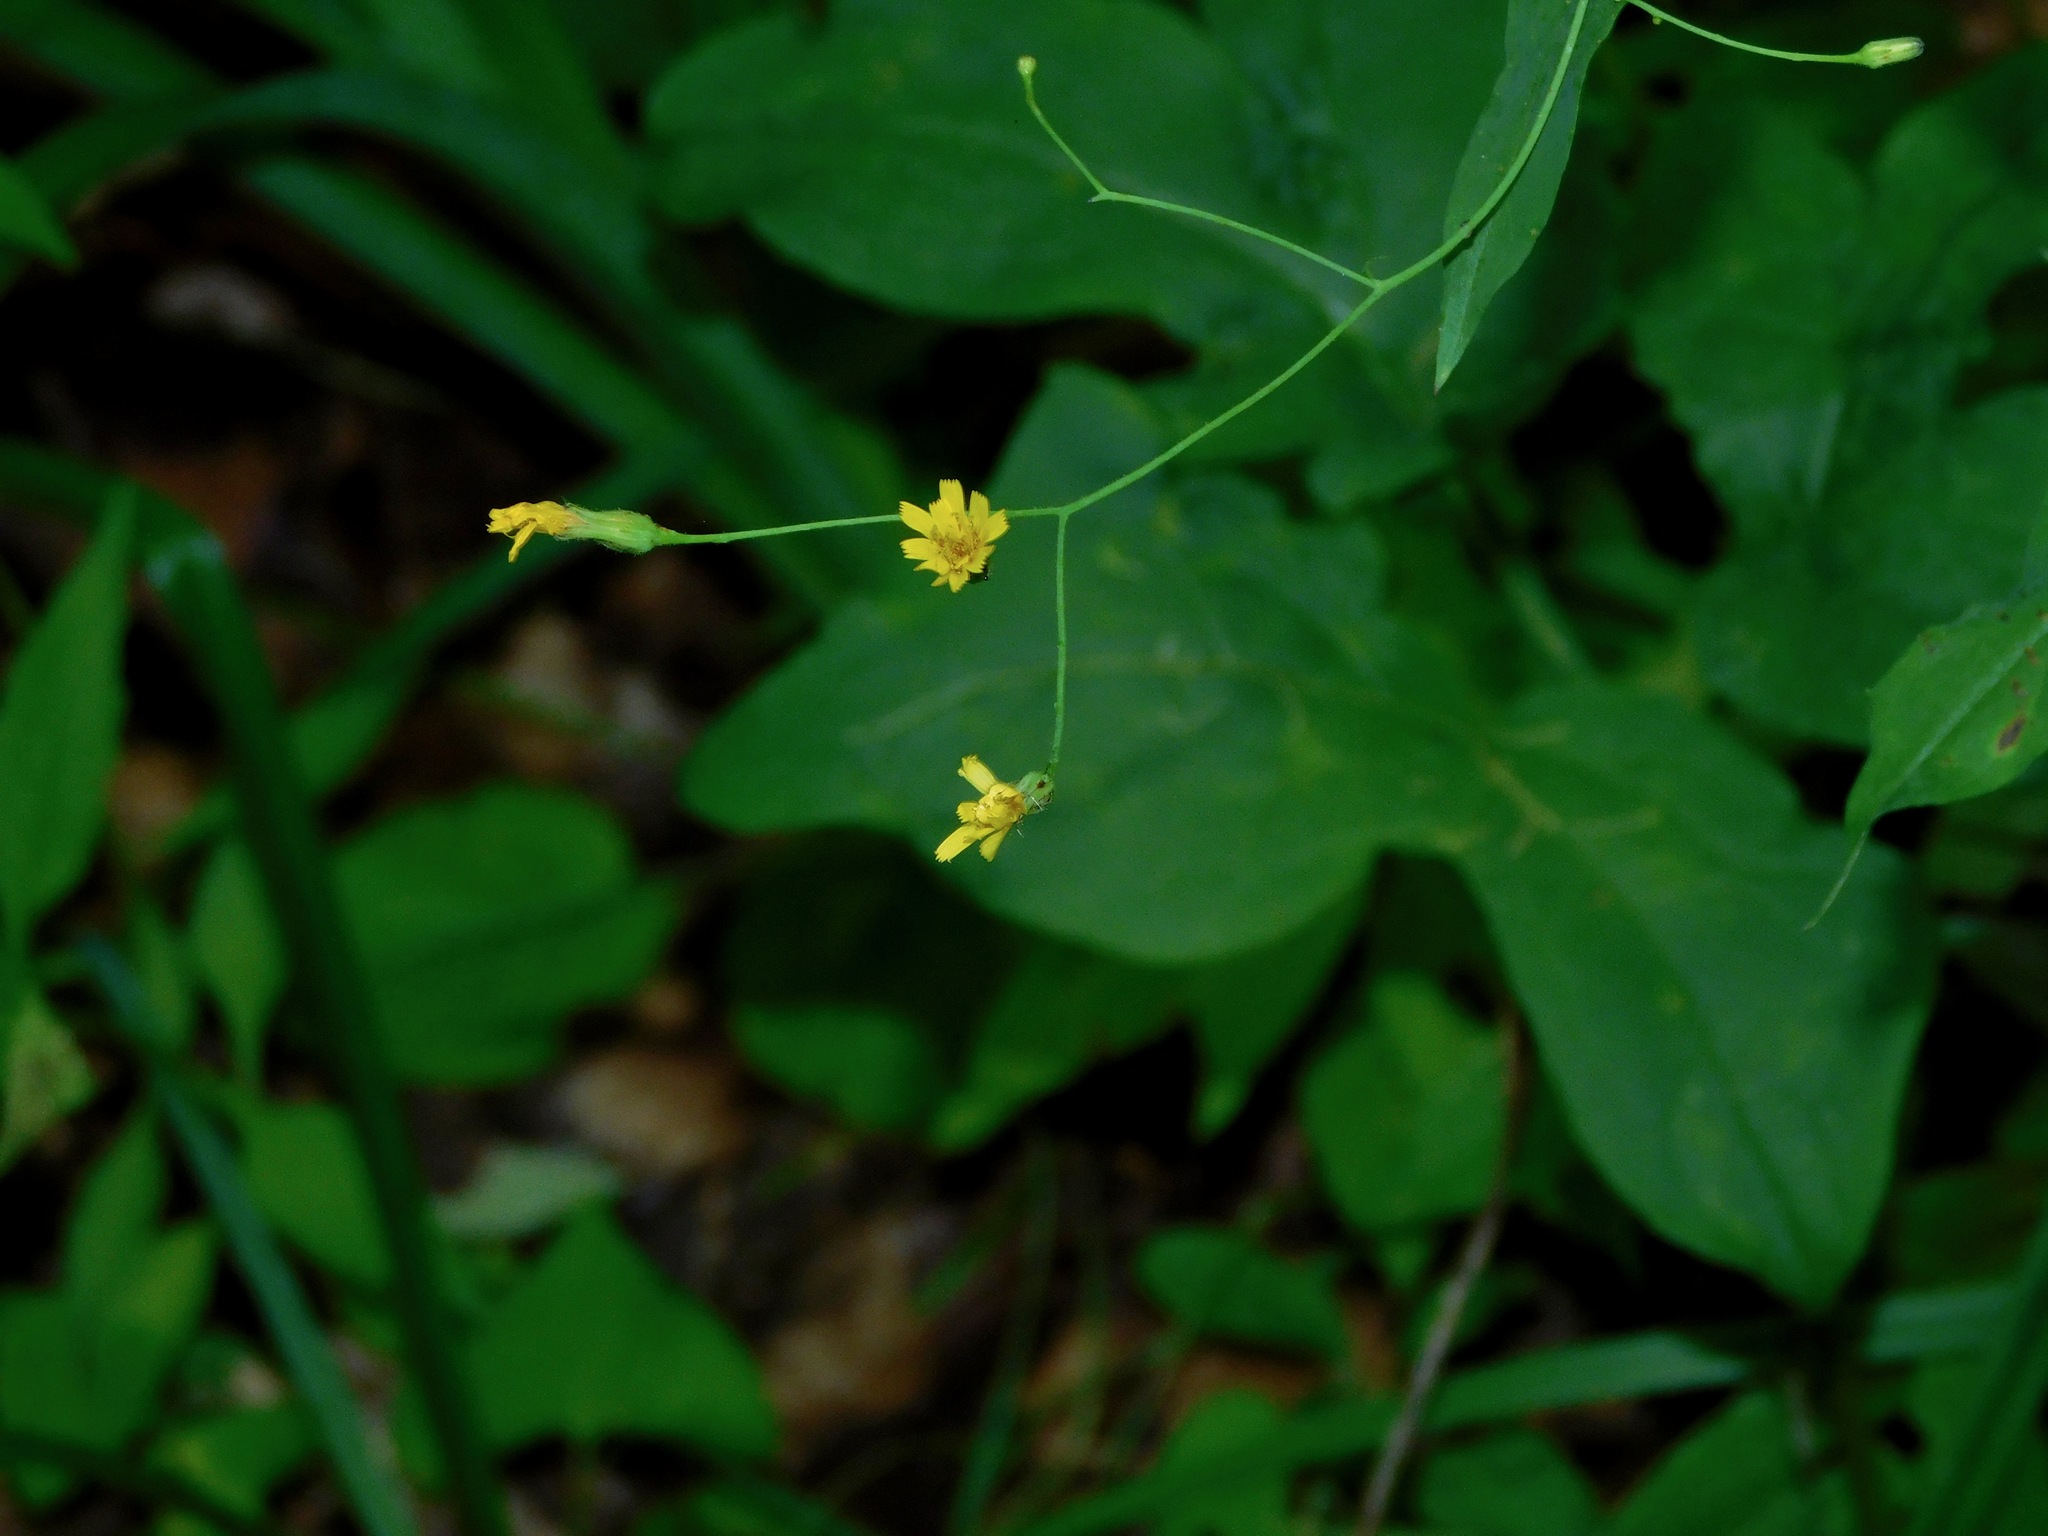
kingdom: Plantae
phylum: Tracheophyta
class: Magnoliopsida
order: Asterales
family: Asteraceae
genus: Hieracium
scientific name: Hieracium paniculatum
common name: Allegheny hawkweed
